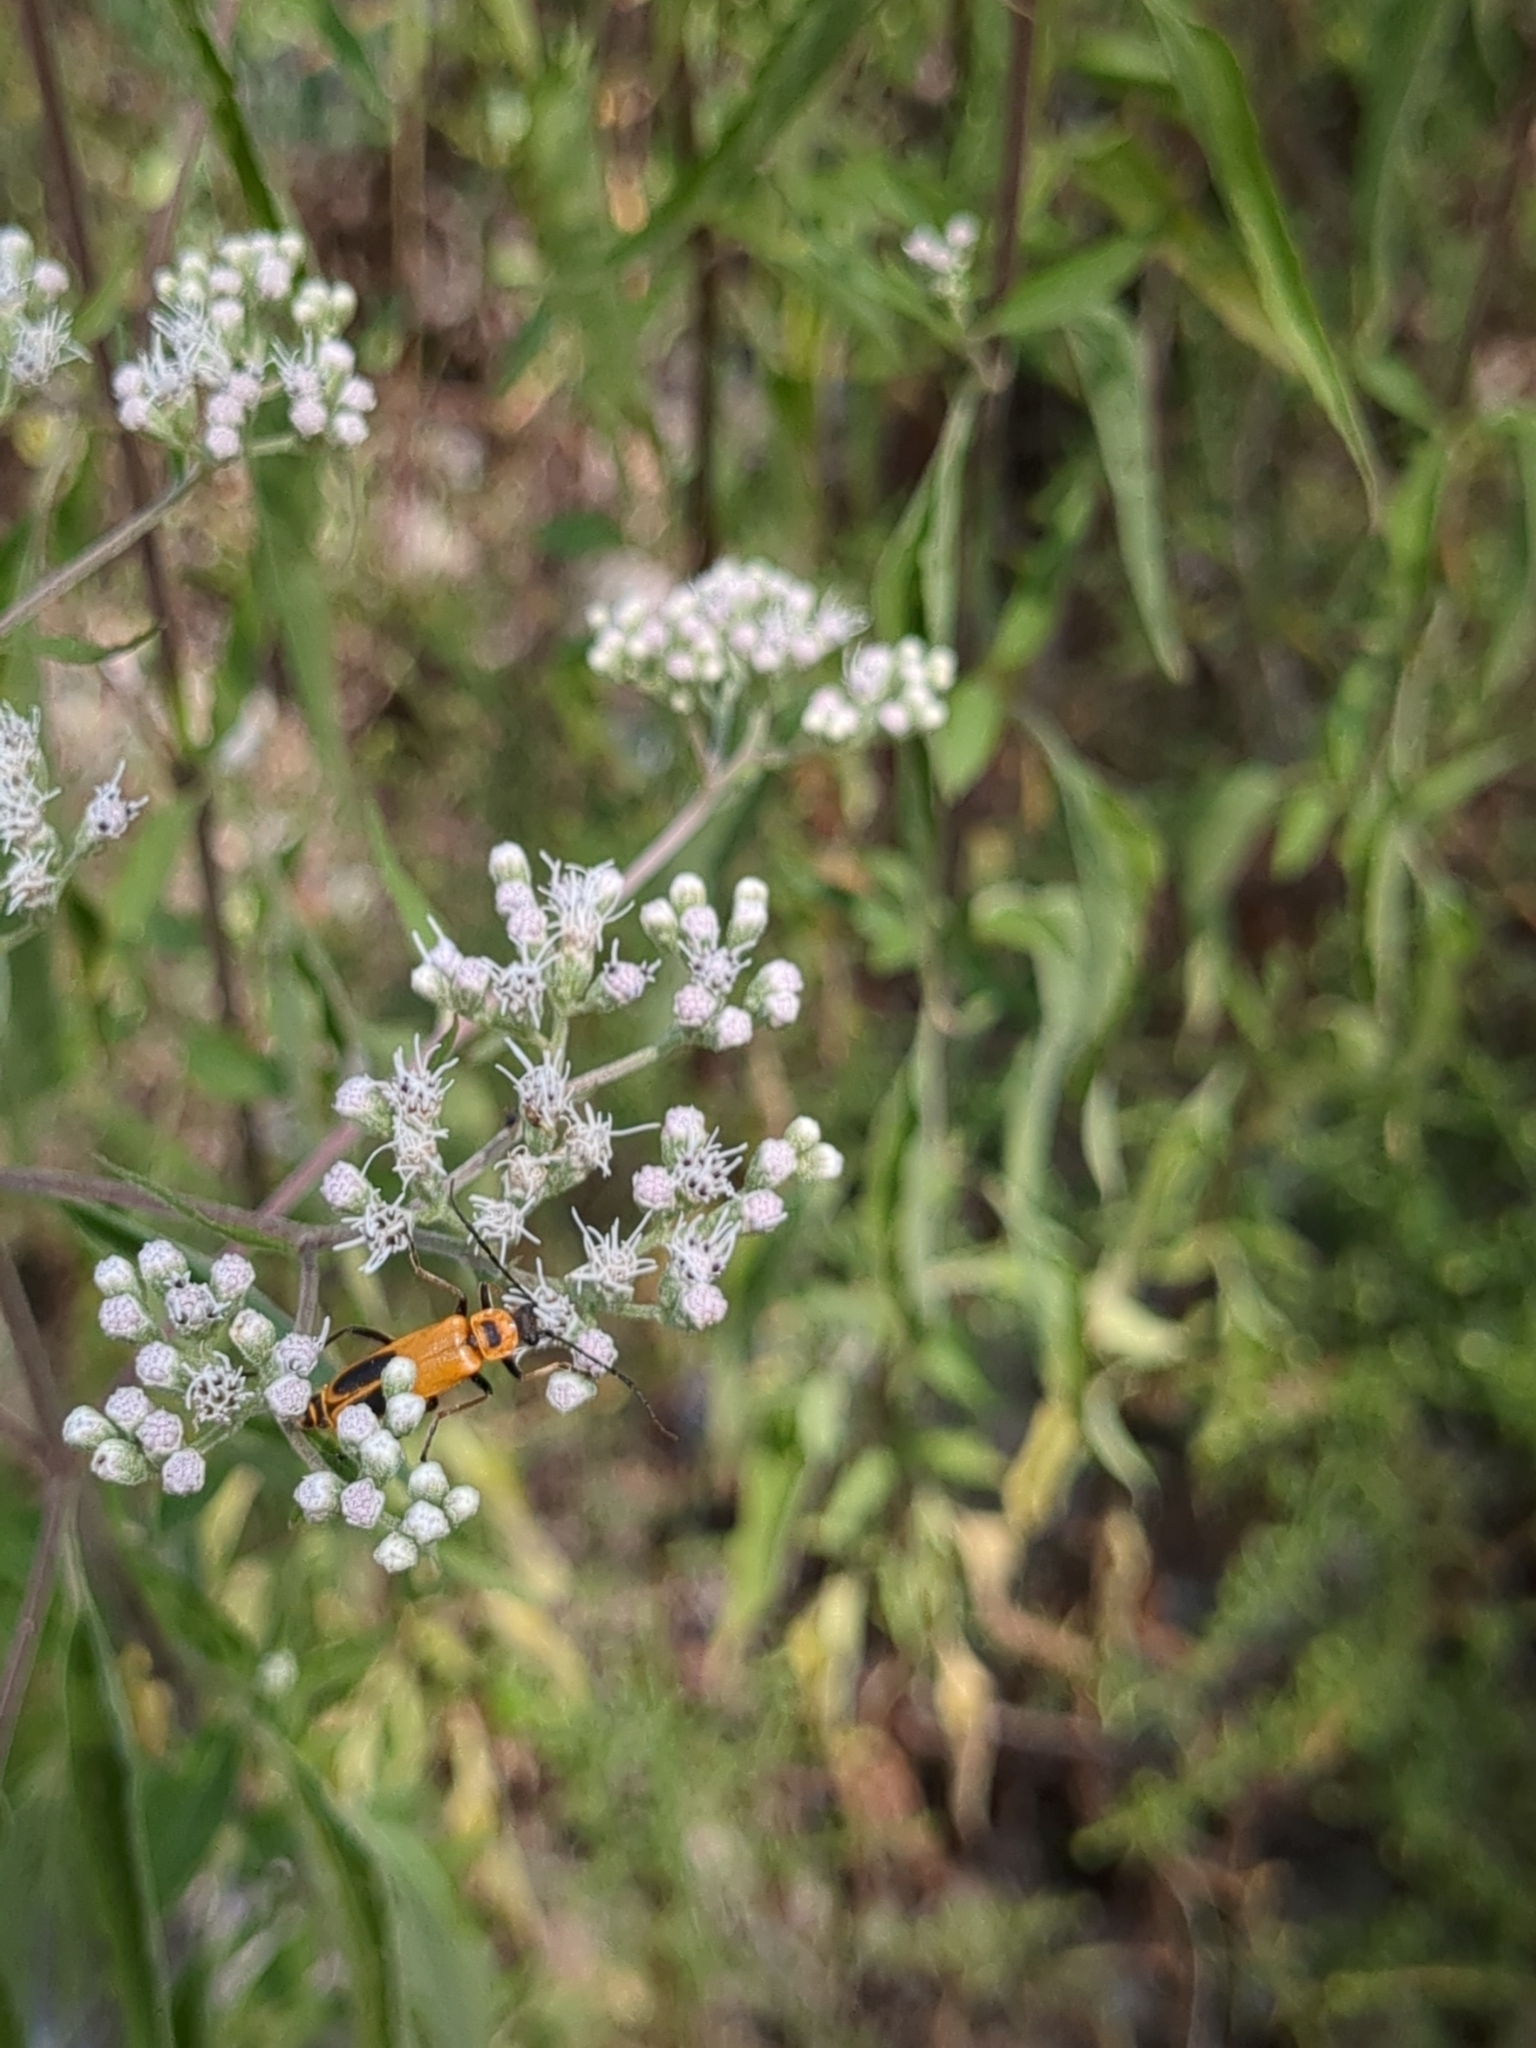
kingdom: Animalia
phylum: Arthropoda
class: Insecta
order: Coleoptera
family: Cantharidae
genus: Chauliognathus
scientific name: Chauliognathus pensylvanicus
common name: Goldenrod soldier beetle
